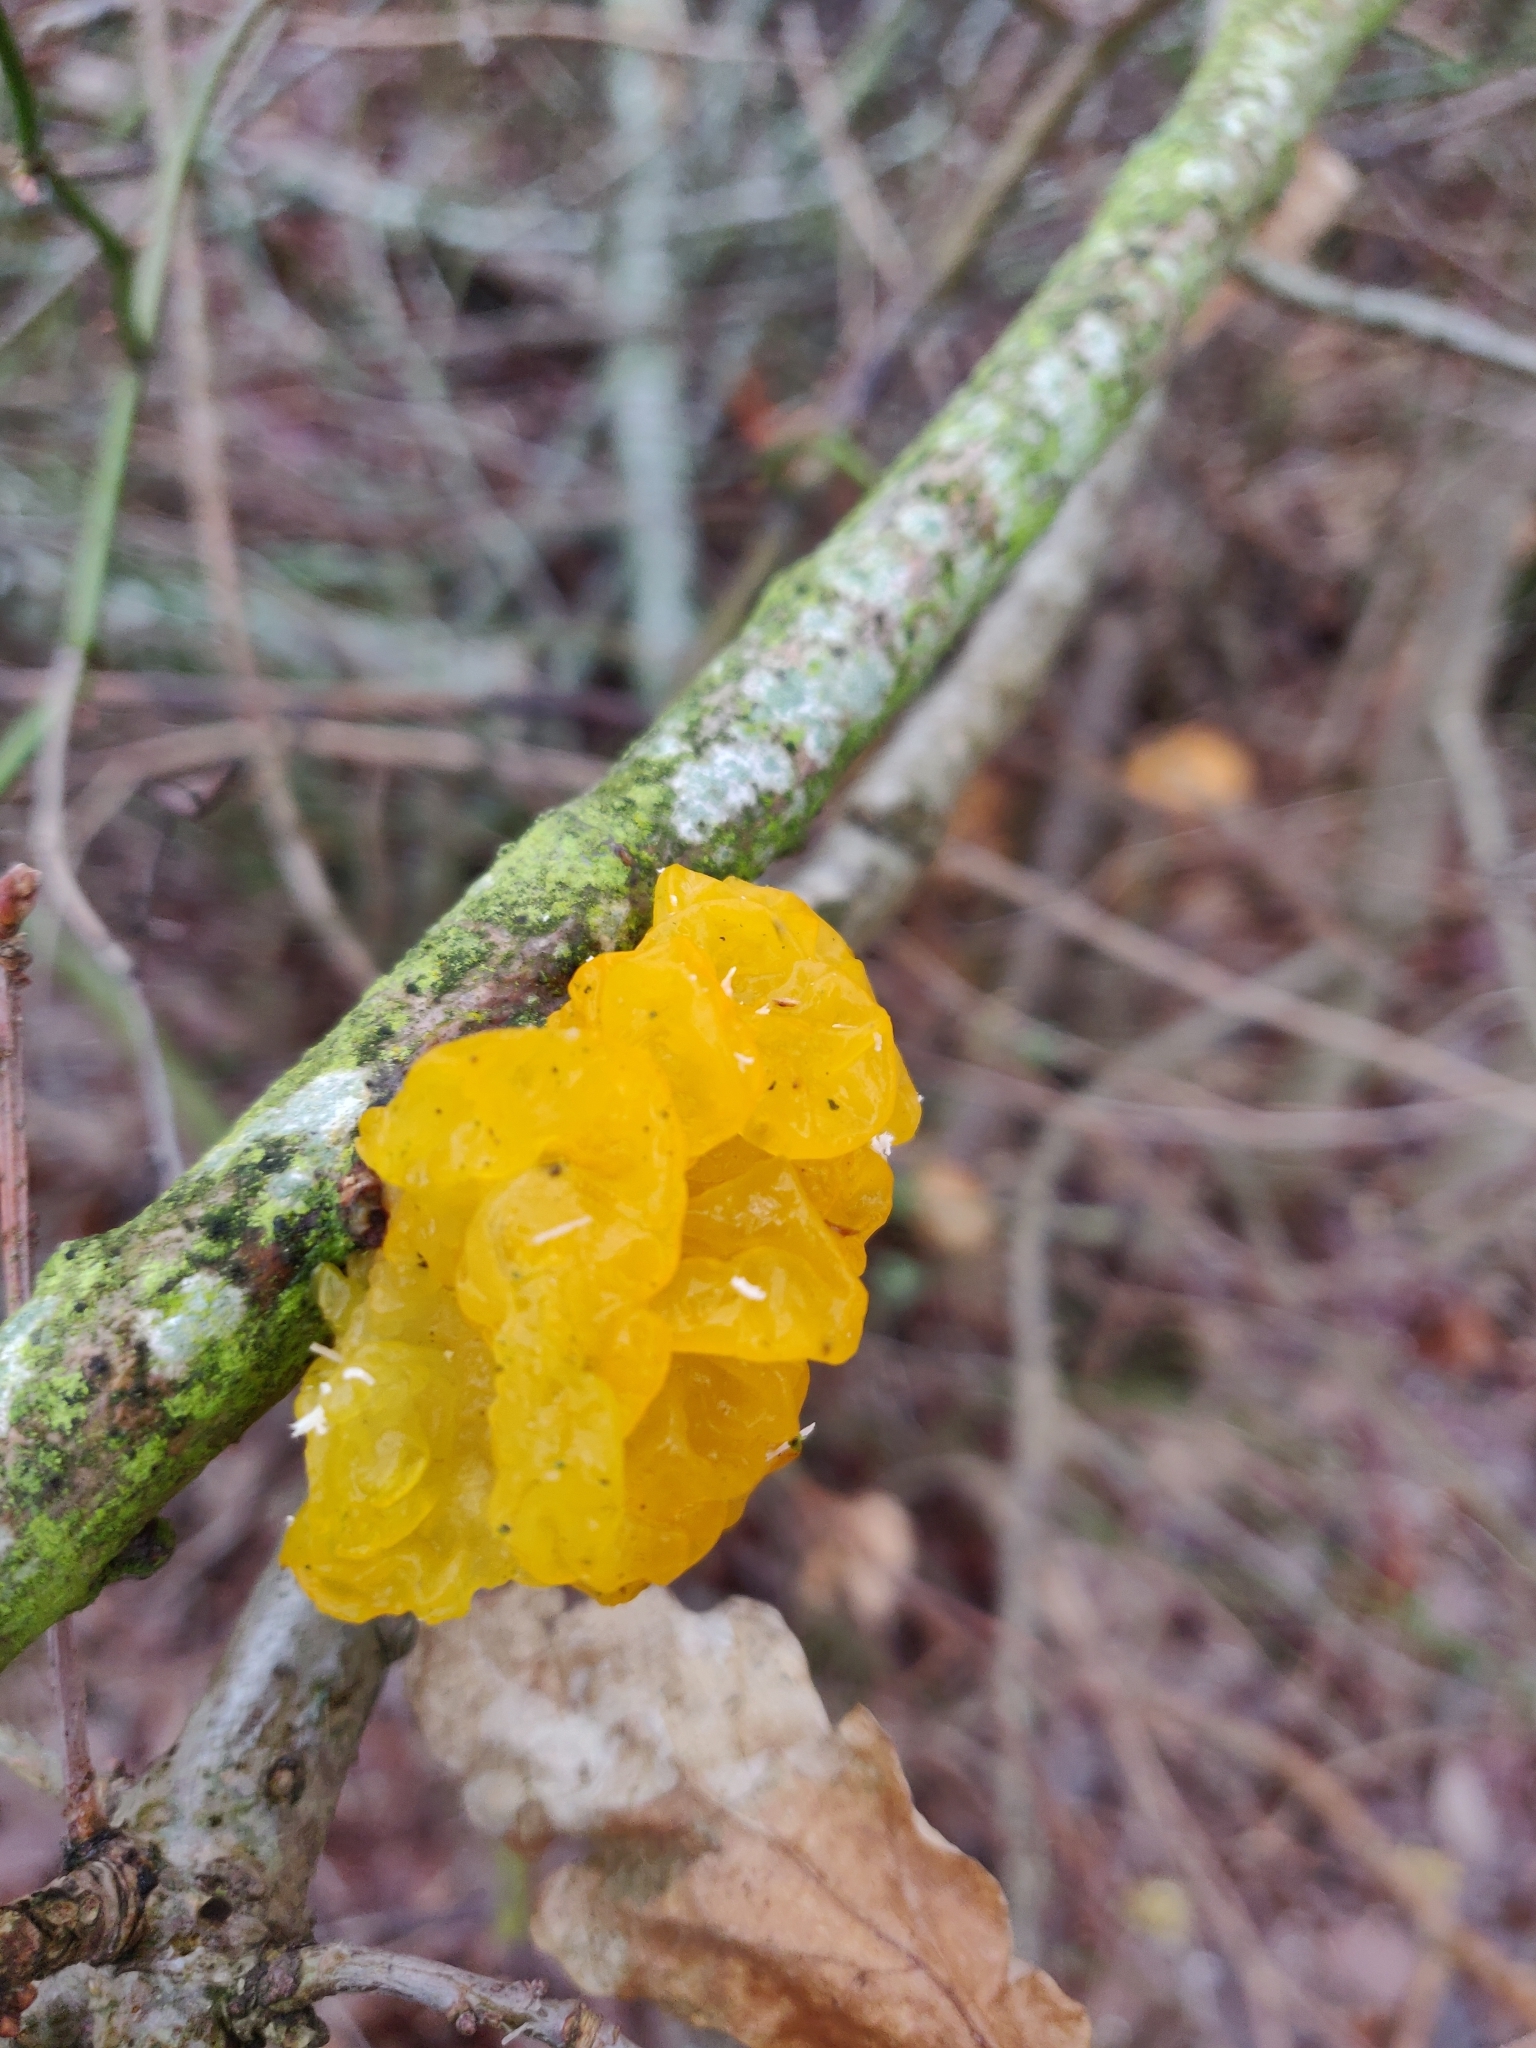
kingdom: Fungi
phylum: Basidiomycota
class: Tremellomycetes
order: Tremellales
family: Tremellaceae
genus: Tremella
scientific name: Tremella mesenterica
